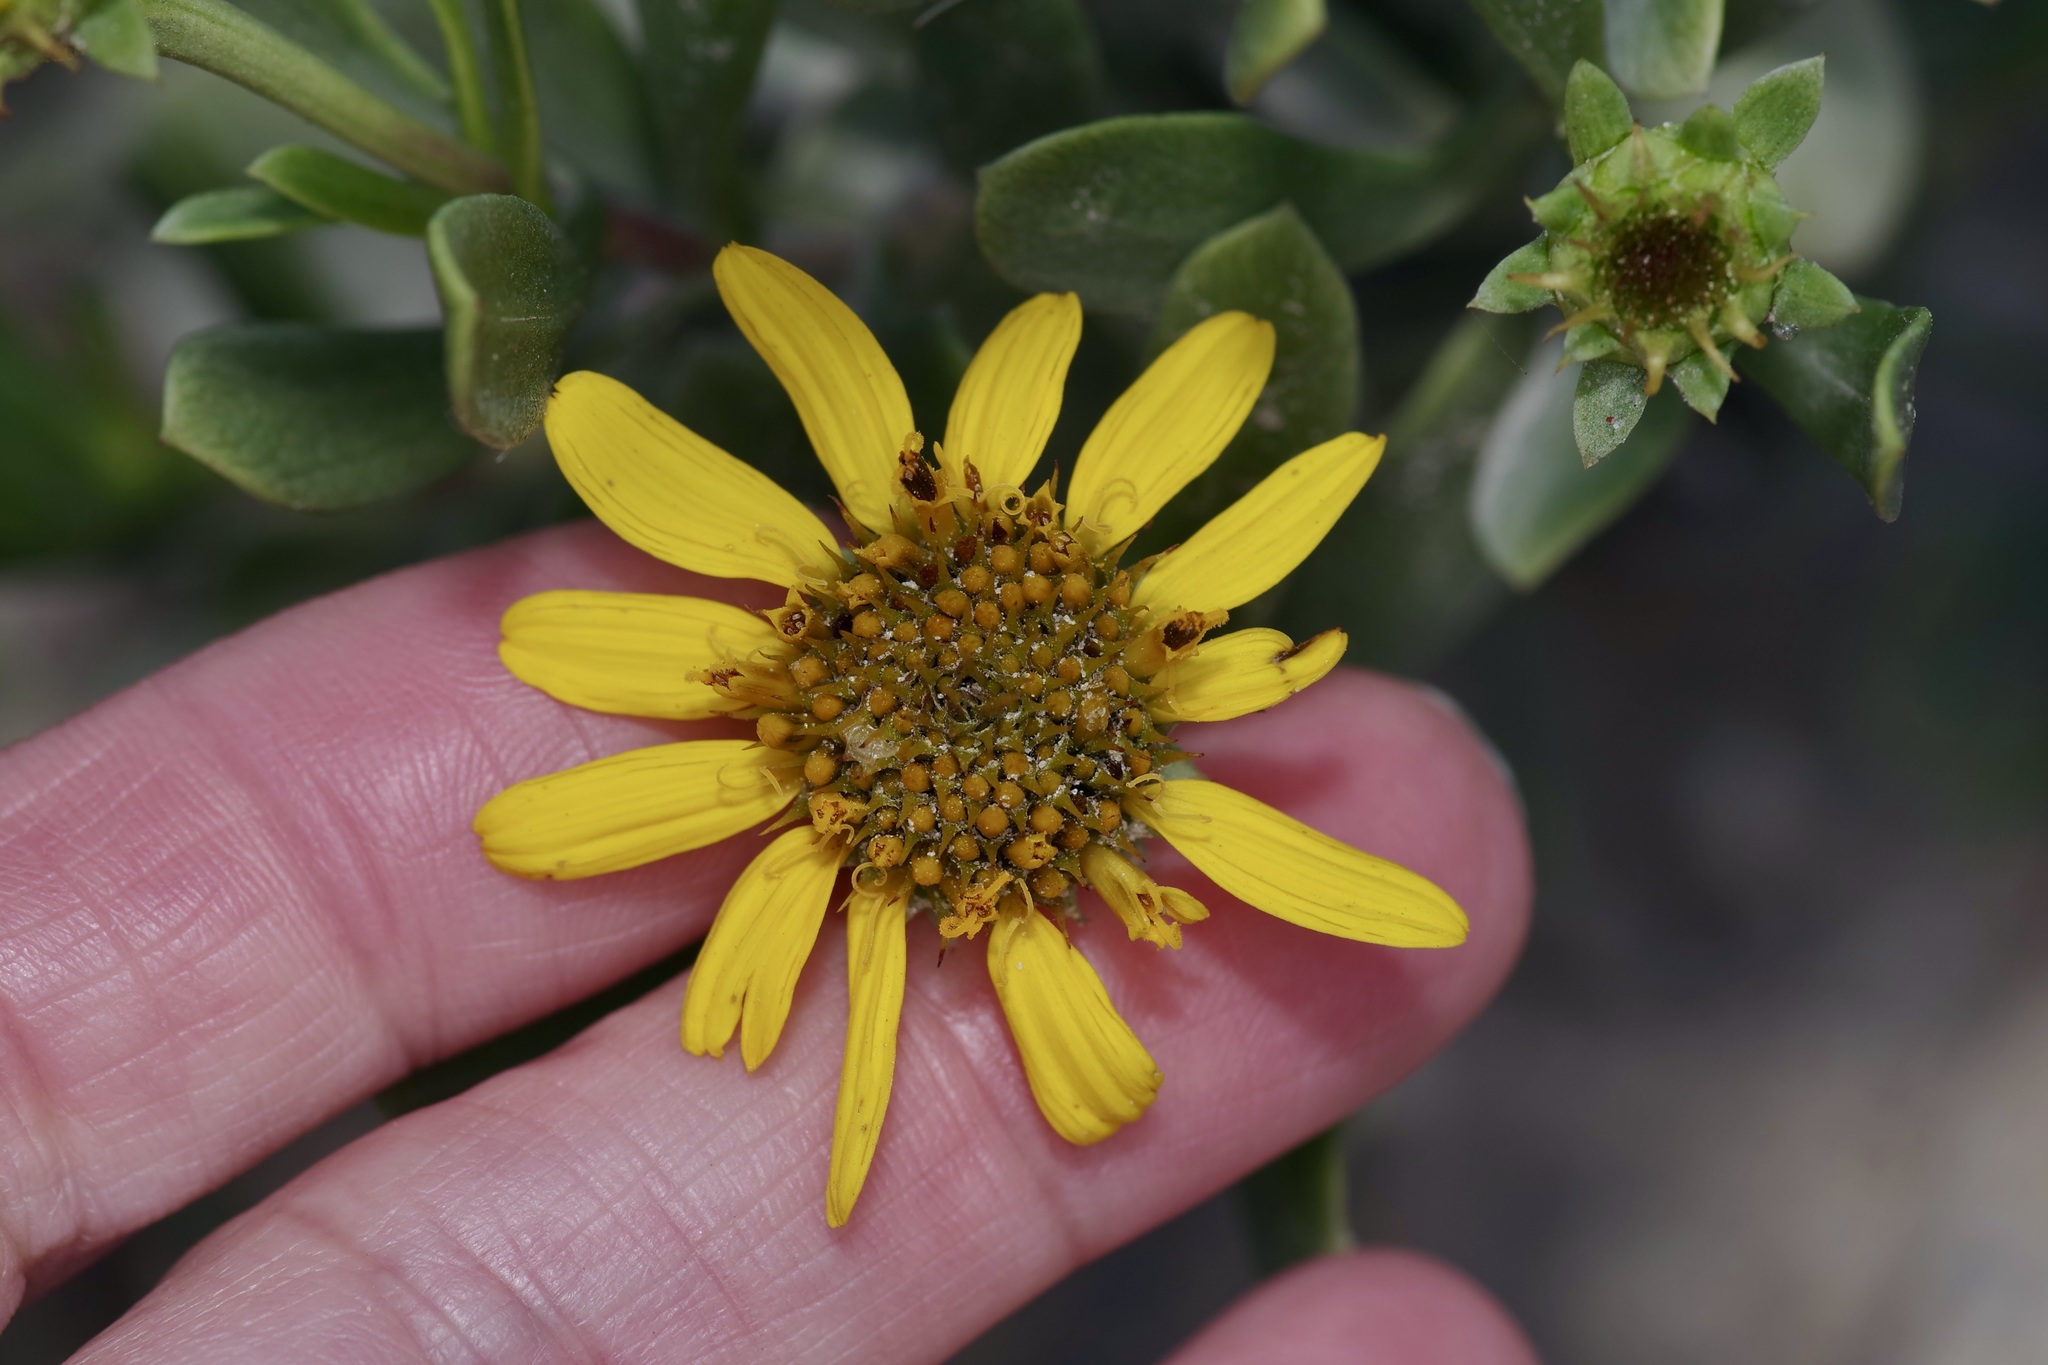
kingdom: Plantae
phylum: Tracheophyta
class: Magnoliopsida
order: Asterales
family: Asteraceae
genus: Borrichia
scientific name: Borrichia frutescens
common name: Sea oxeye
